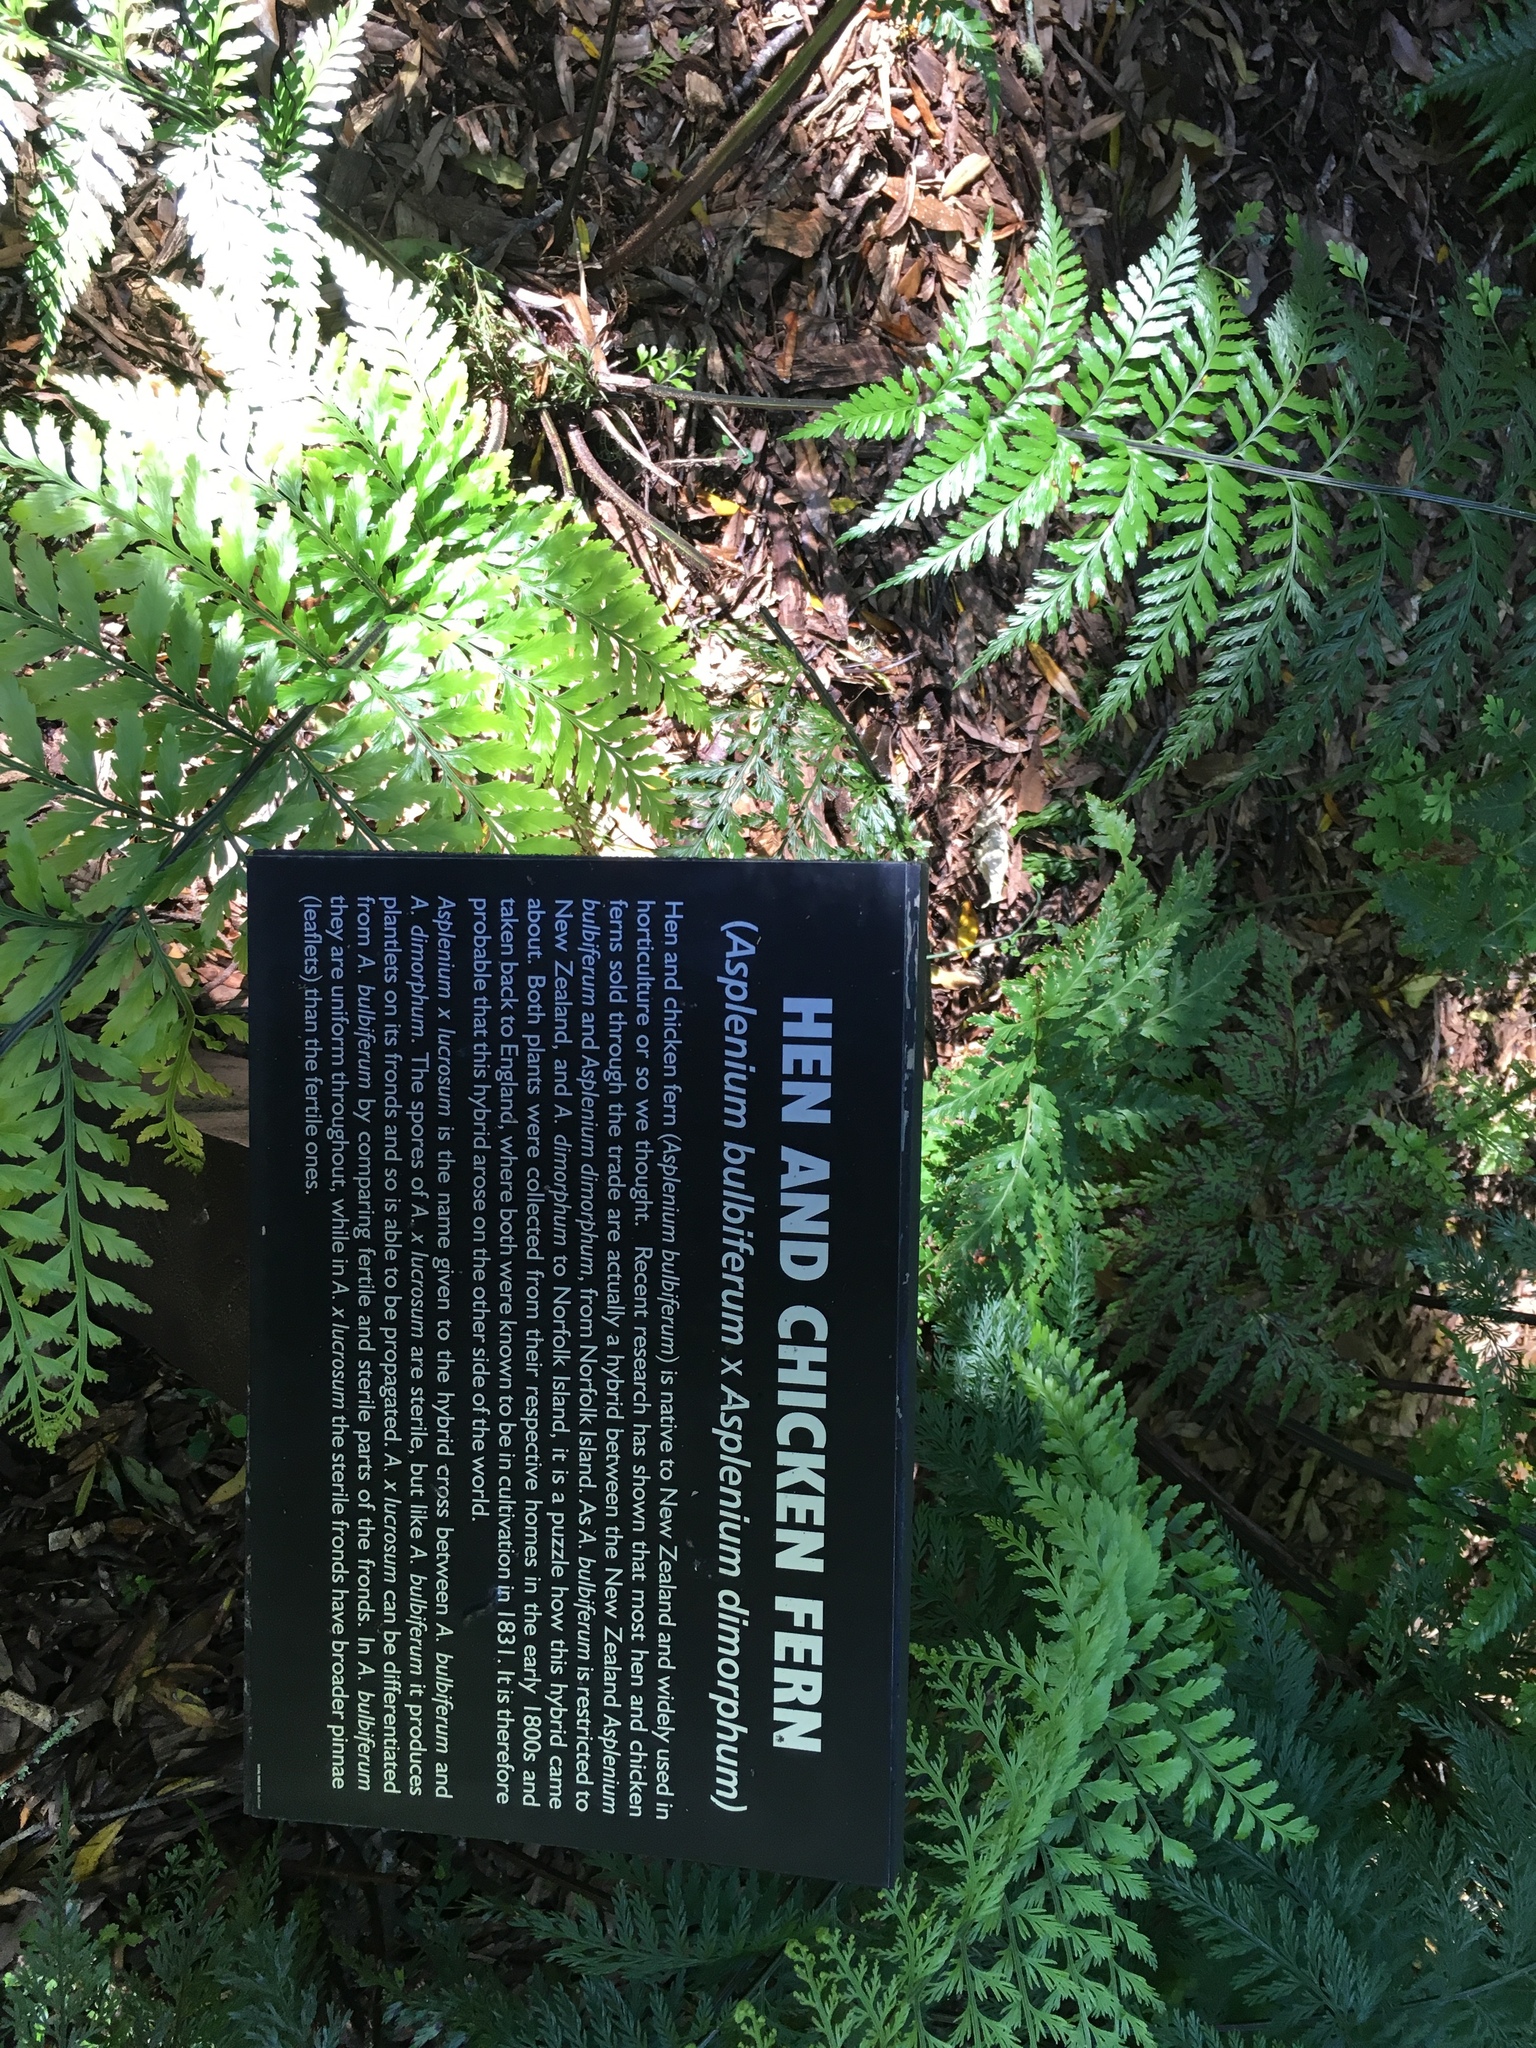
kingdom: Plantae
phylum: Tracheophyta
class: Polypodiopsida
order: Polypodiales
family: Aspleniaceae
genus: Asplenium
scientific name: Asplenium lucrosum
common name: False hen-and-chickens fern
